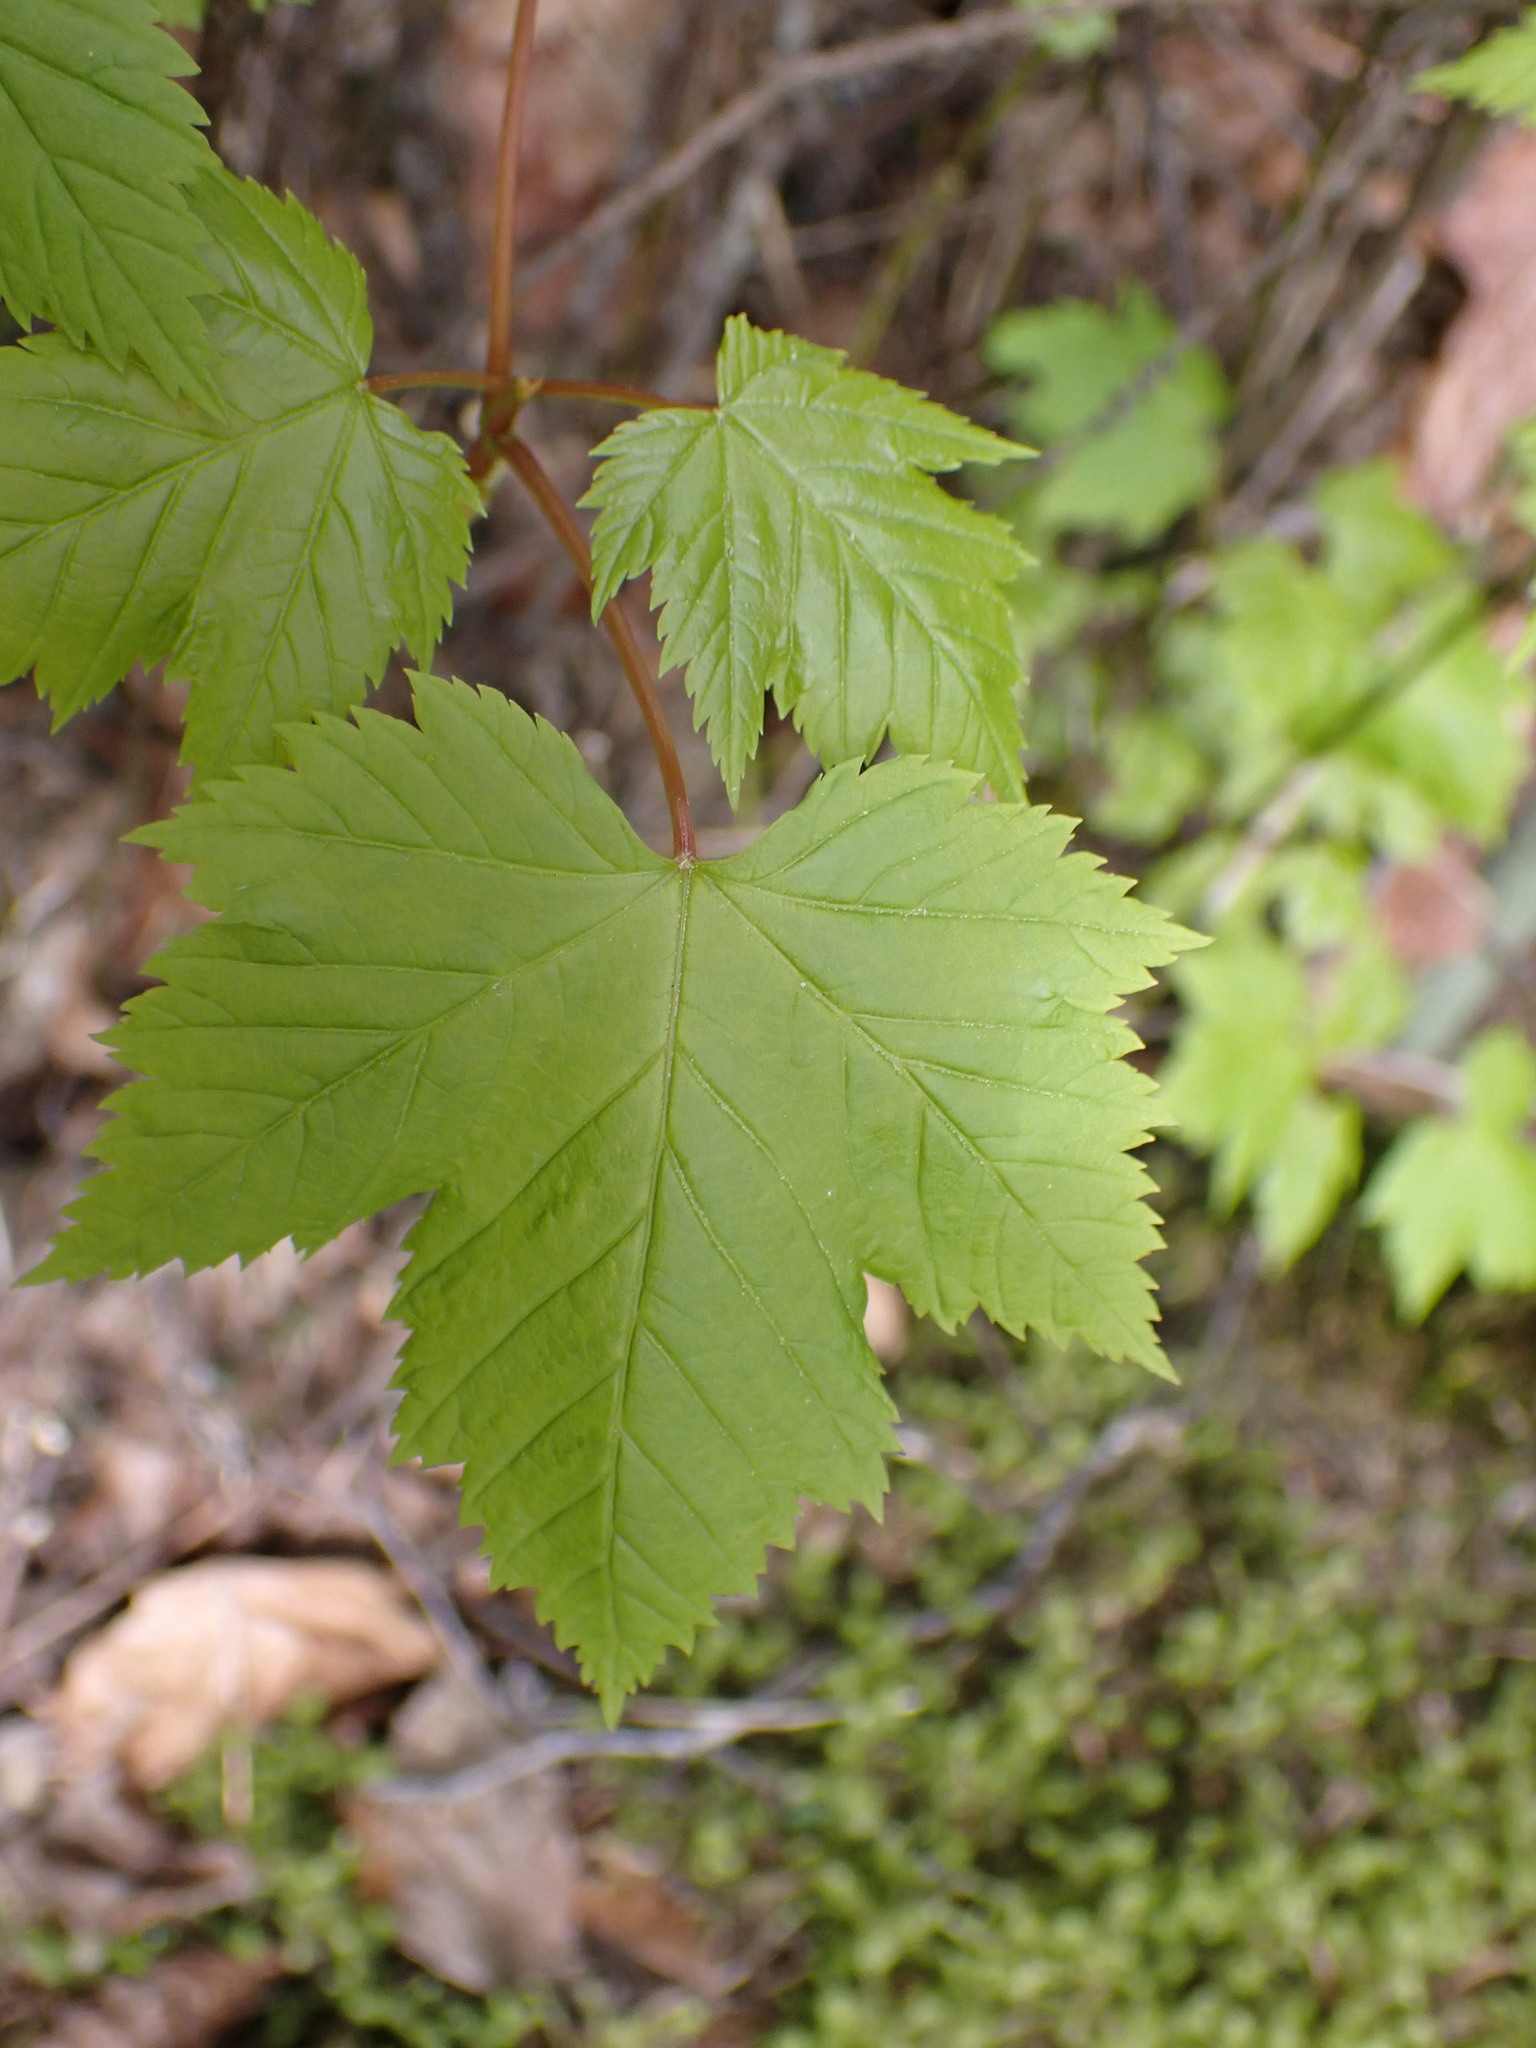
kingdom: Plantae
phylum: Tracheophyta
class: Magnoliopsida
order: Sapindales
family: Sapindaceae
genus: Acer
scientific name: Acer glabrum
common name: Rocky mountain maple
